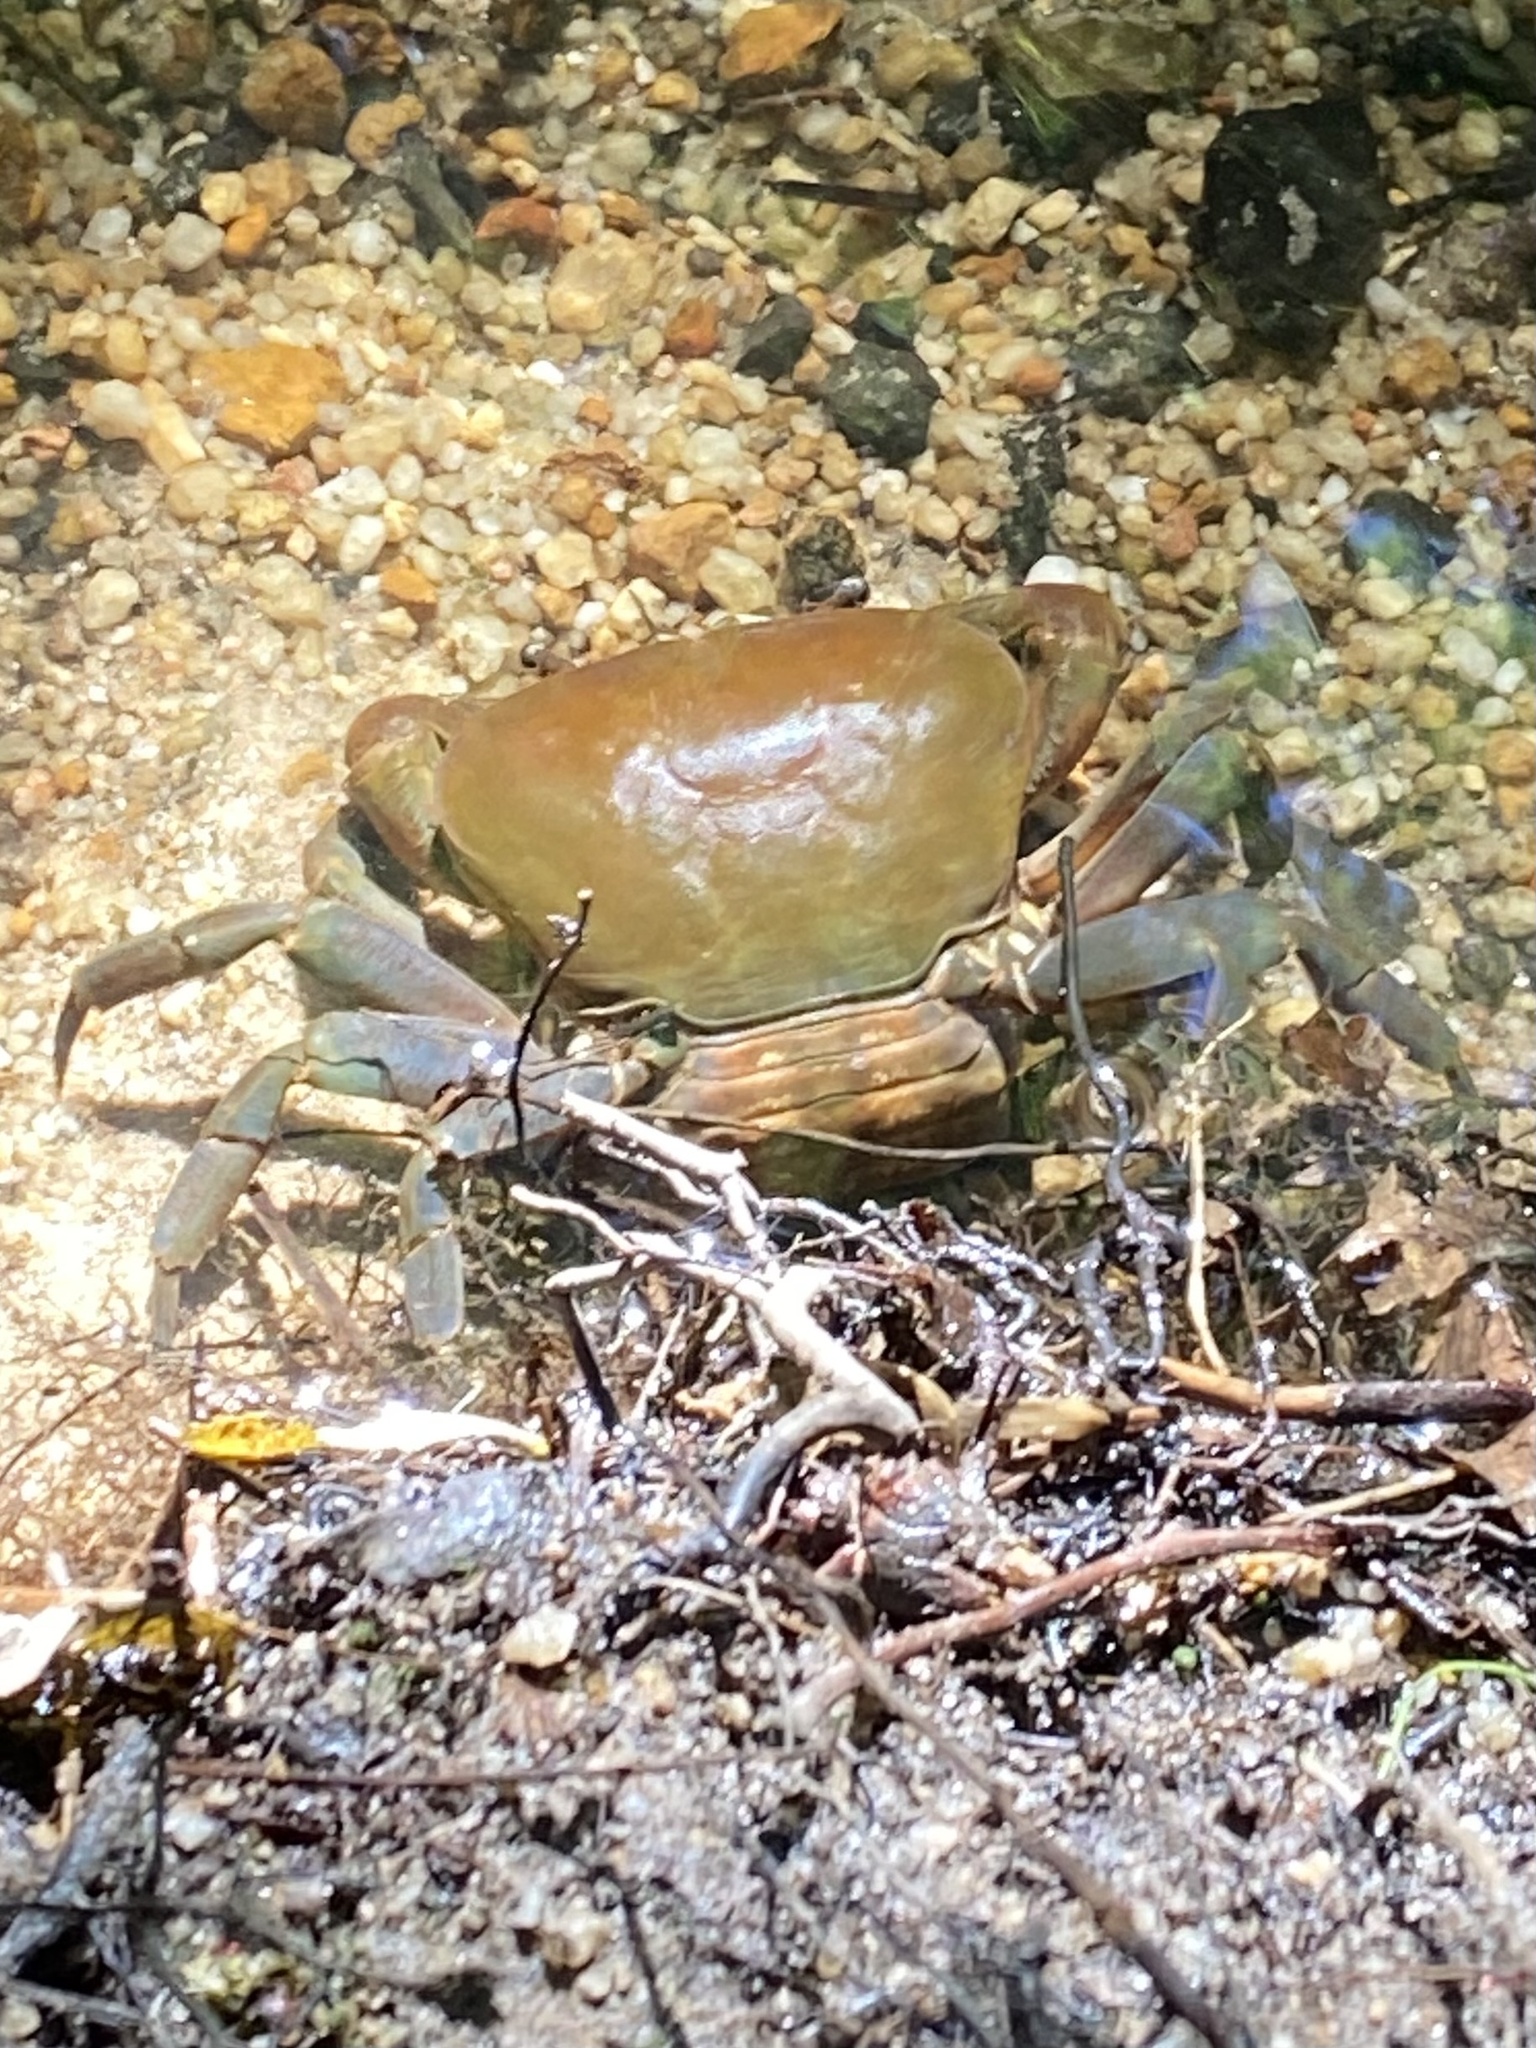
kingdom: Animalia
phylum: Arthropoda
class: Malacostraca
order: Decapoda
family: Potamonautidae
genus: Potamonautes
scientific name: Potamonautes perlatus
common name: Cape river crab
